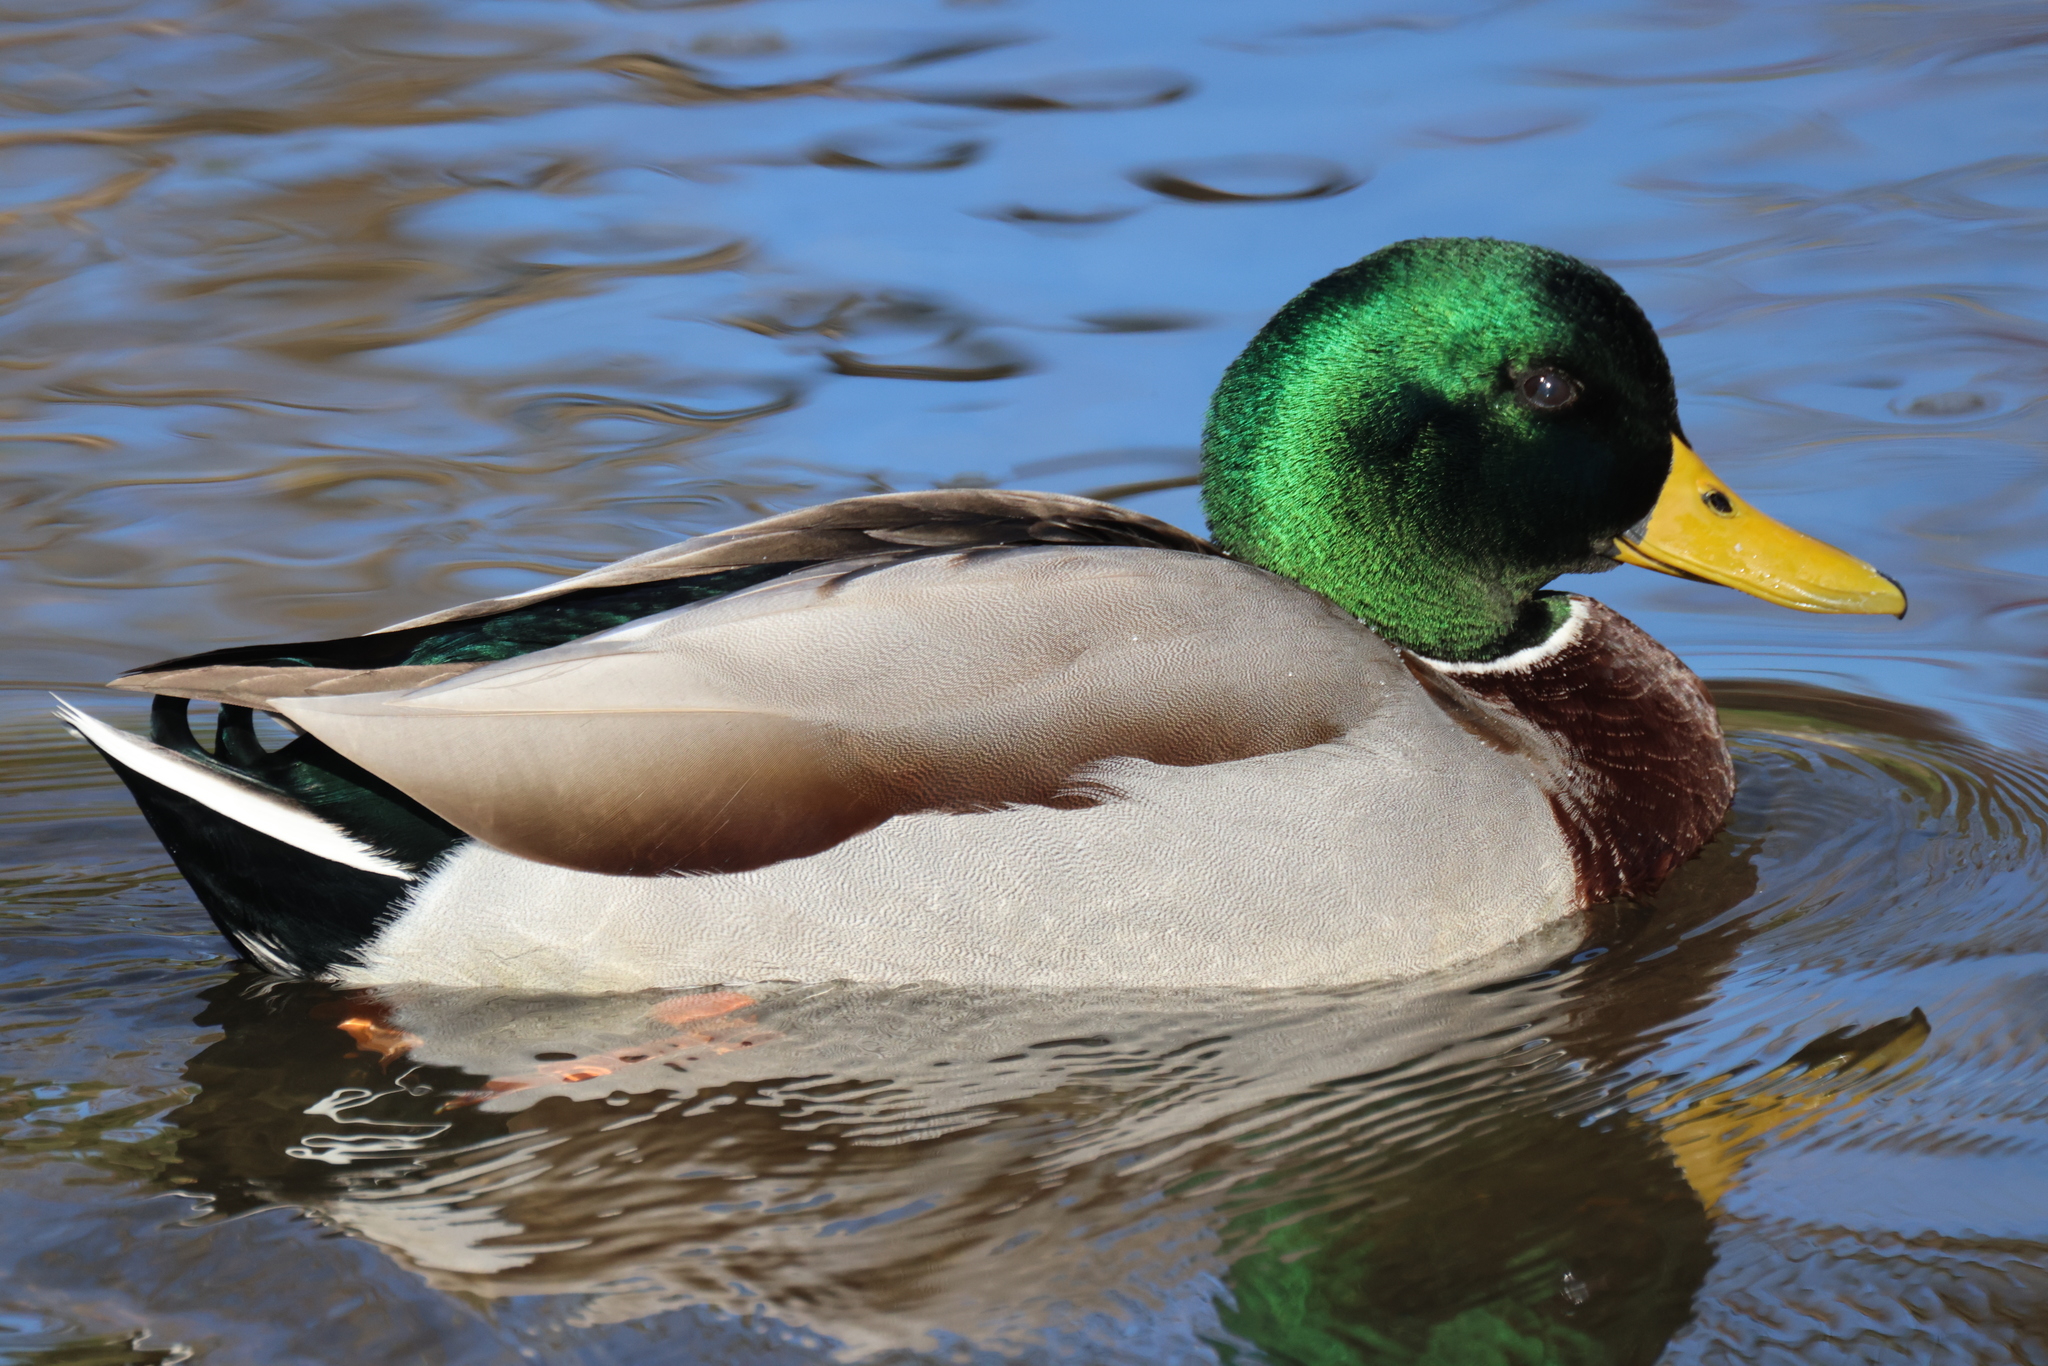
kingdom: Animalia
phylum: Chordata
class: Aves
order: Anseriformes
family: Anatidae
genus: Anas
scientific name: Anas platyrhynchos
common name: Mallard
